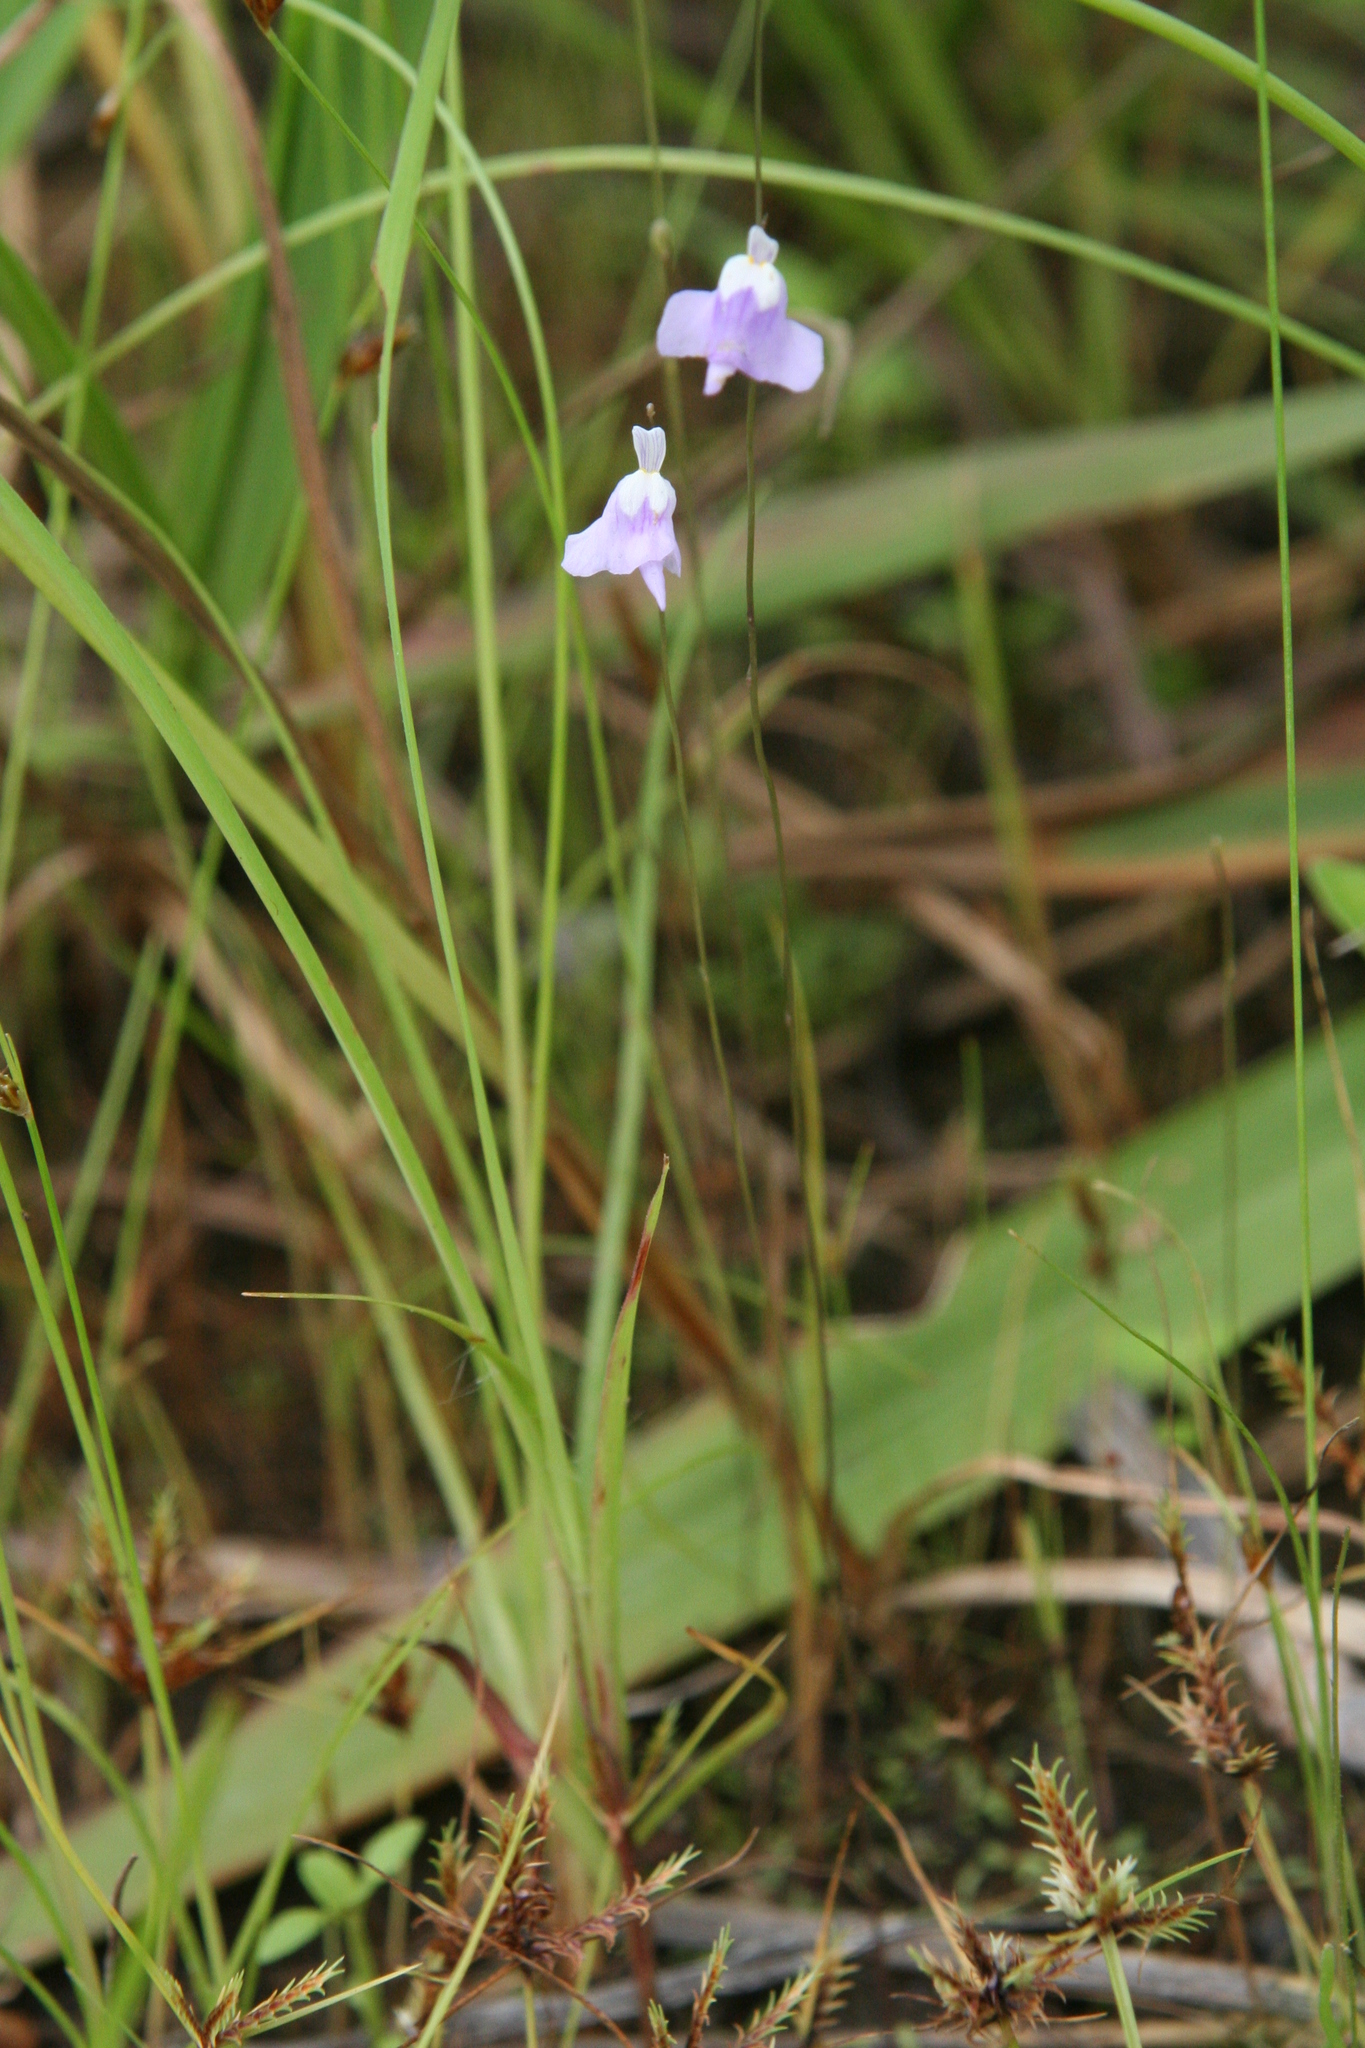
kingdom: Plantae
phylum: Tracheophyta
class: Magnoliopsida
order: Lamiales
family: Lentibulariaceae
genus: Utricularia
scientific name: Utricularia geoffrayi
